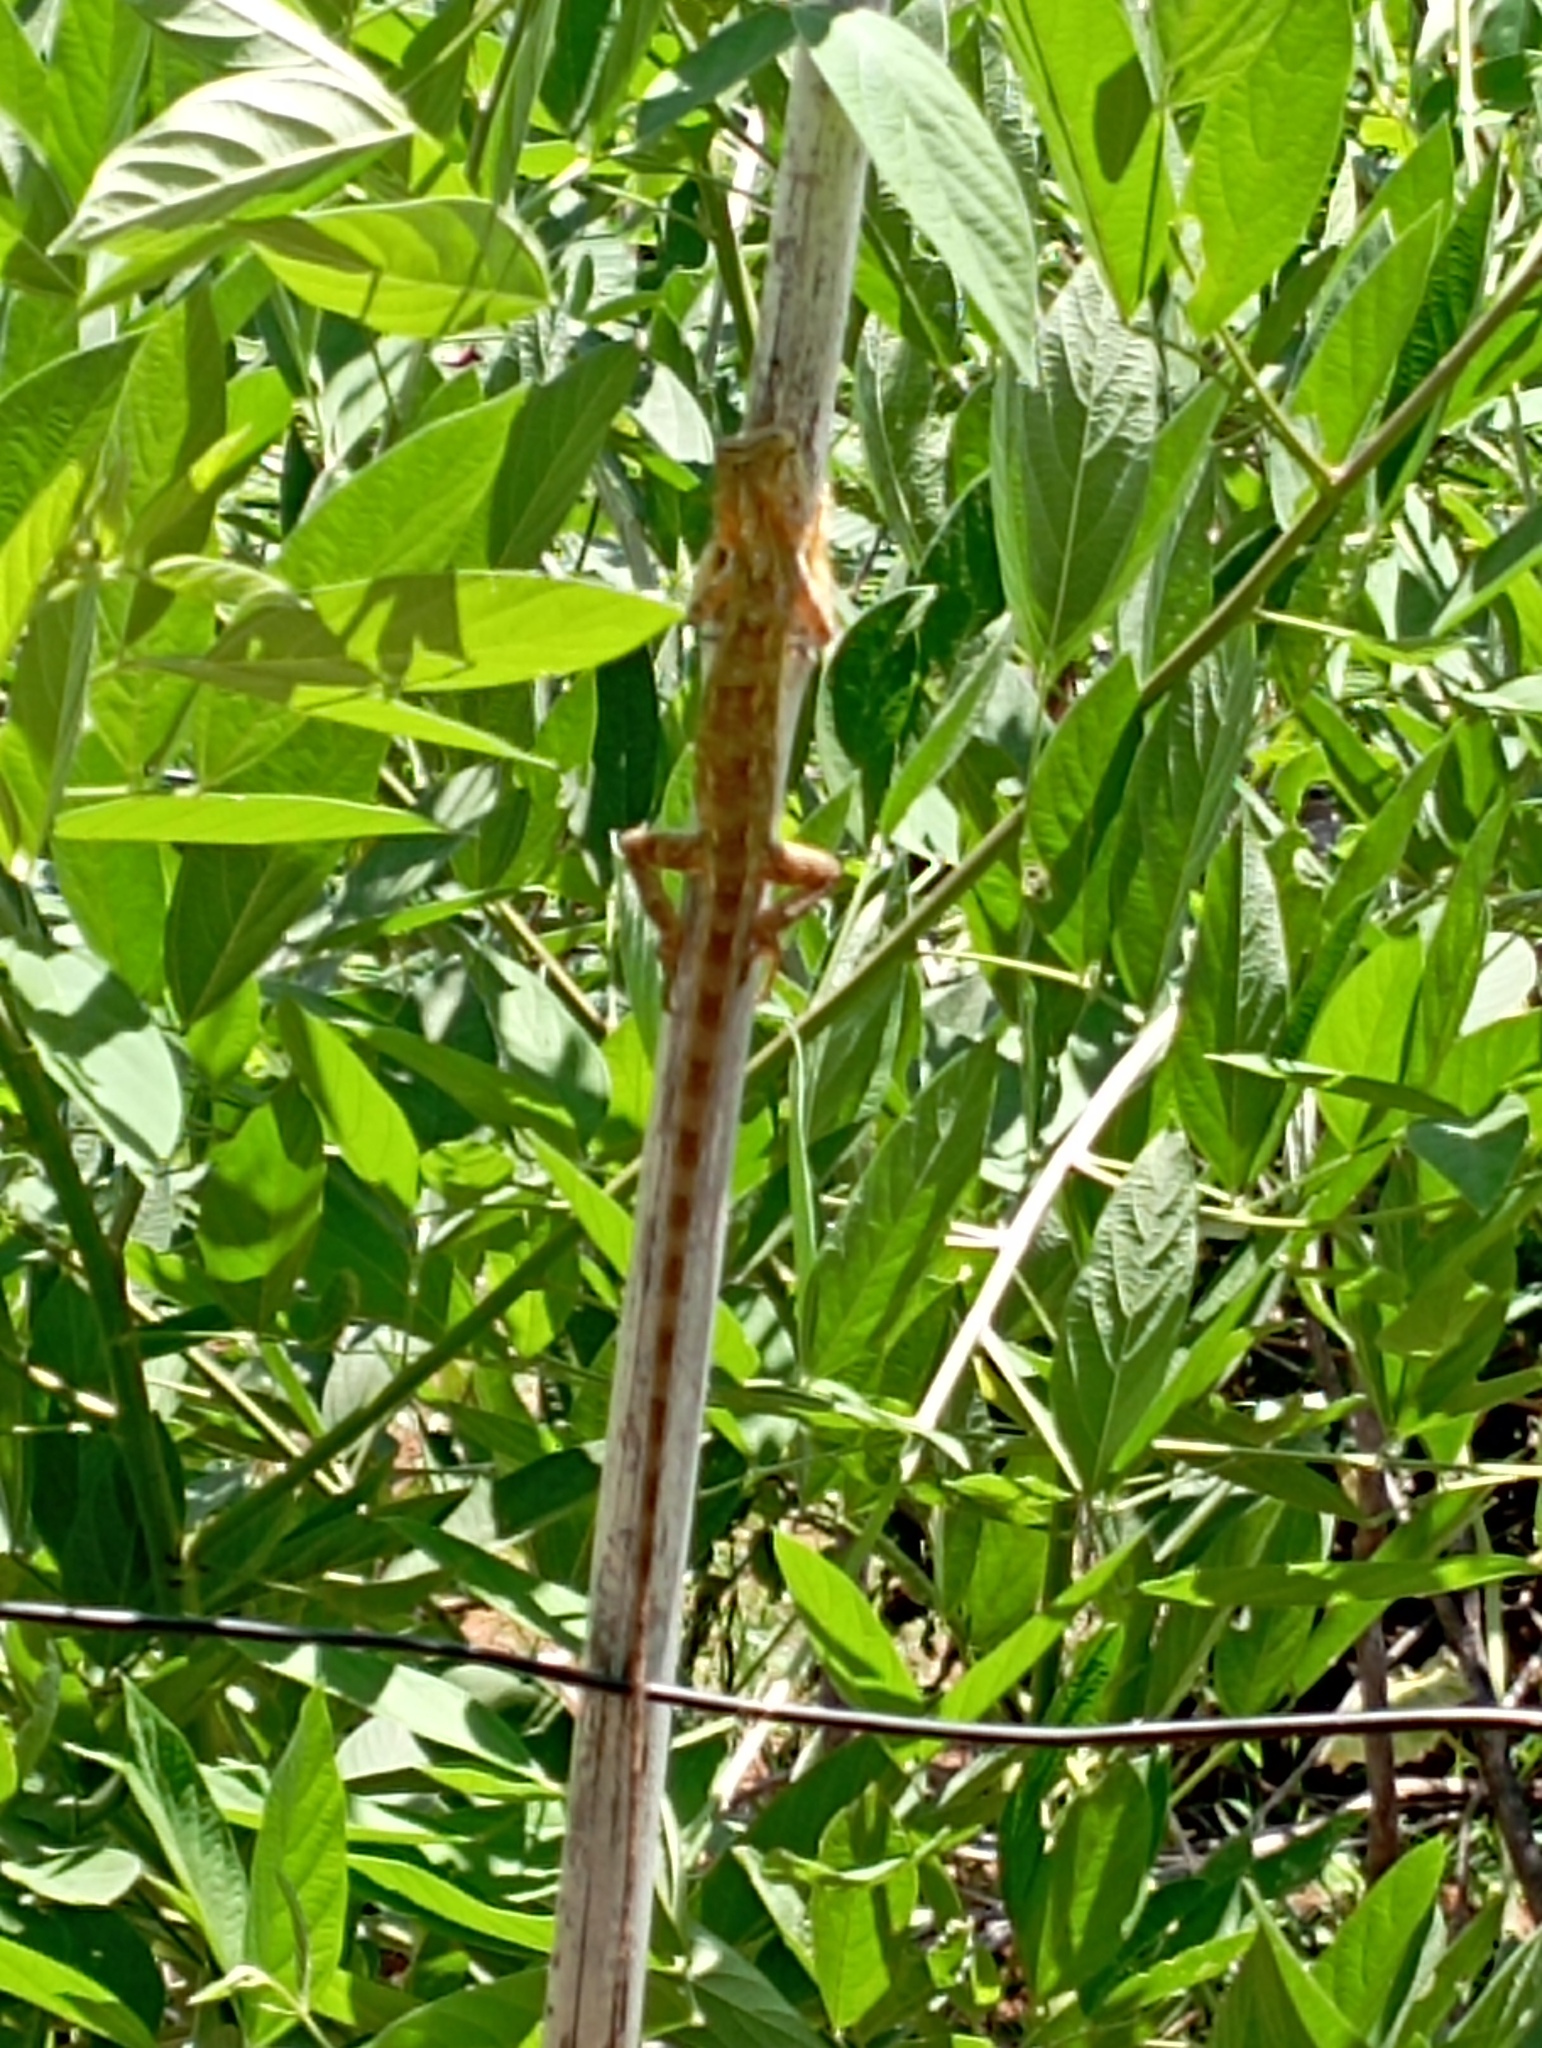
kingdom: Animalia
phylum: Chordata
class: Squamata
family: Agamidae
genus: Calotes
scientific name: Calotes versicolor
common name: Oriental garden lizard
